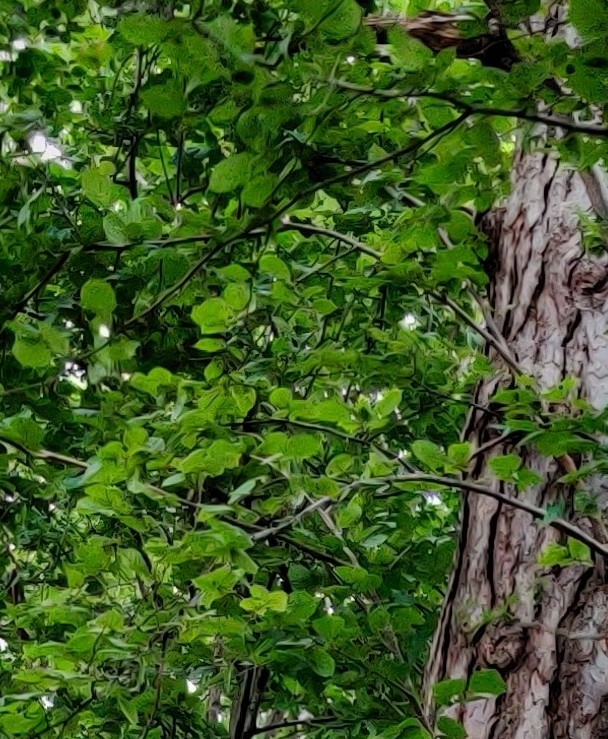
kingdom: Plantae
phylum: Tracheophyta
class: Magnoliopsida
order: Fagales
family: Betulaceae
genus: Corylus
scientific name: Corylus avellana
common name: European hazel
